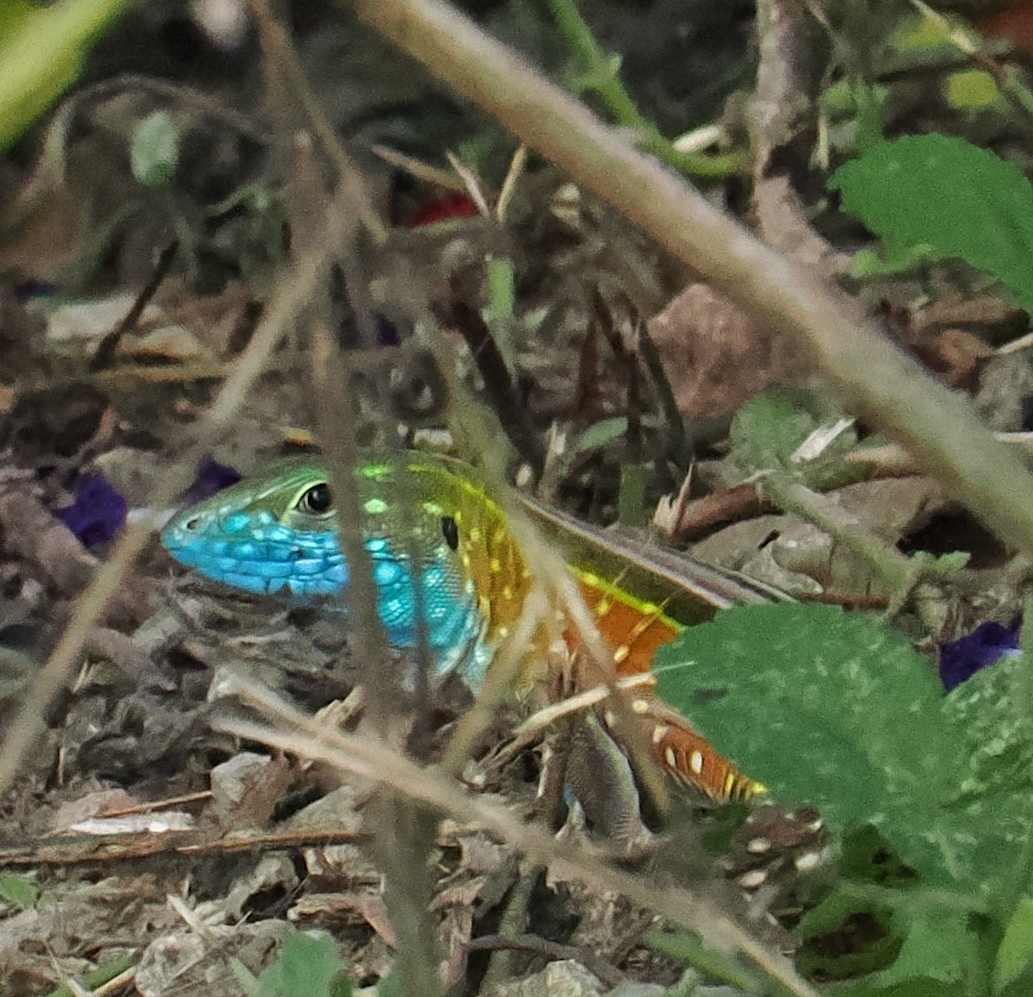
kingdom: Animalia
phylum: Chordata
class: Squamata
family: Teiidae
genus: Cnemidophorus
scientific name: Cnemidophorus gaigei
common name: Gaige’s rainbow lizard
